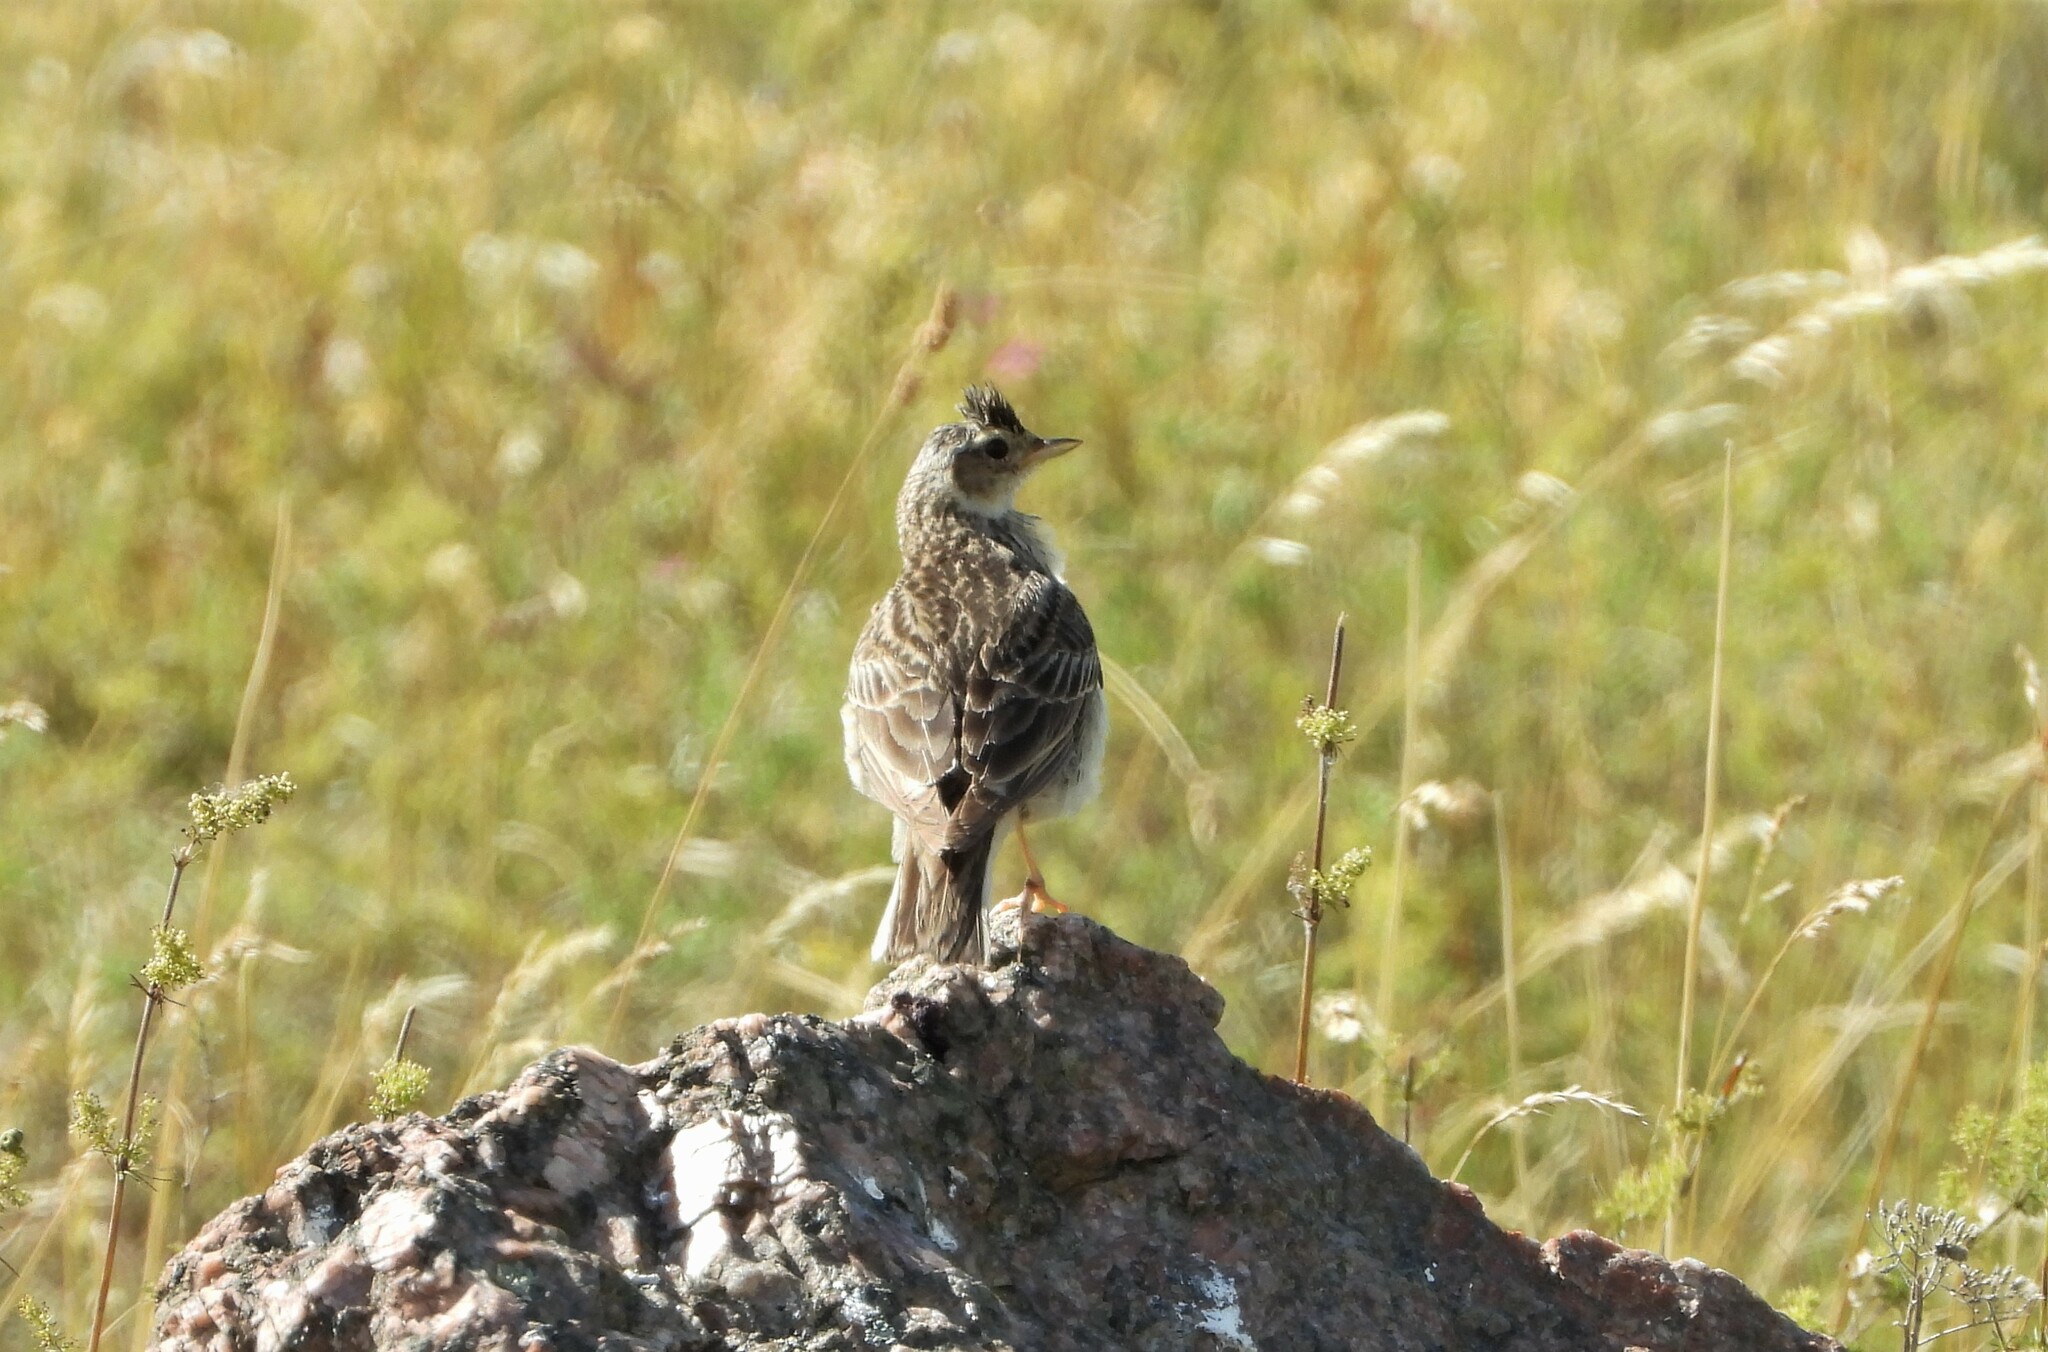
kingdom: Animalia
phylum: Chordata
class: Aves
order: Passeriformes
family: Alaudidae
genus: Alauda
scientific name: Alauda arvensis
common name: Eurasian skylark
